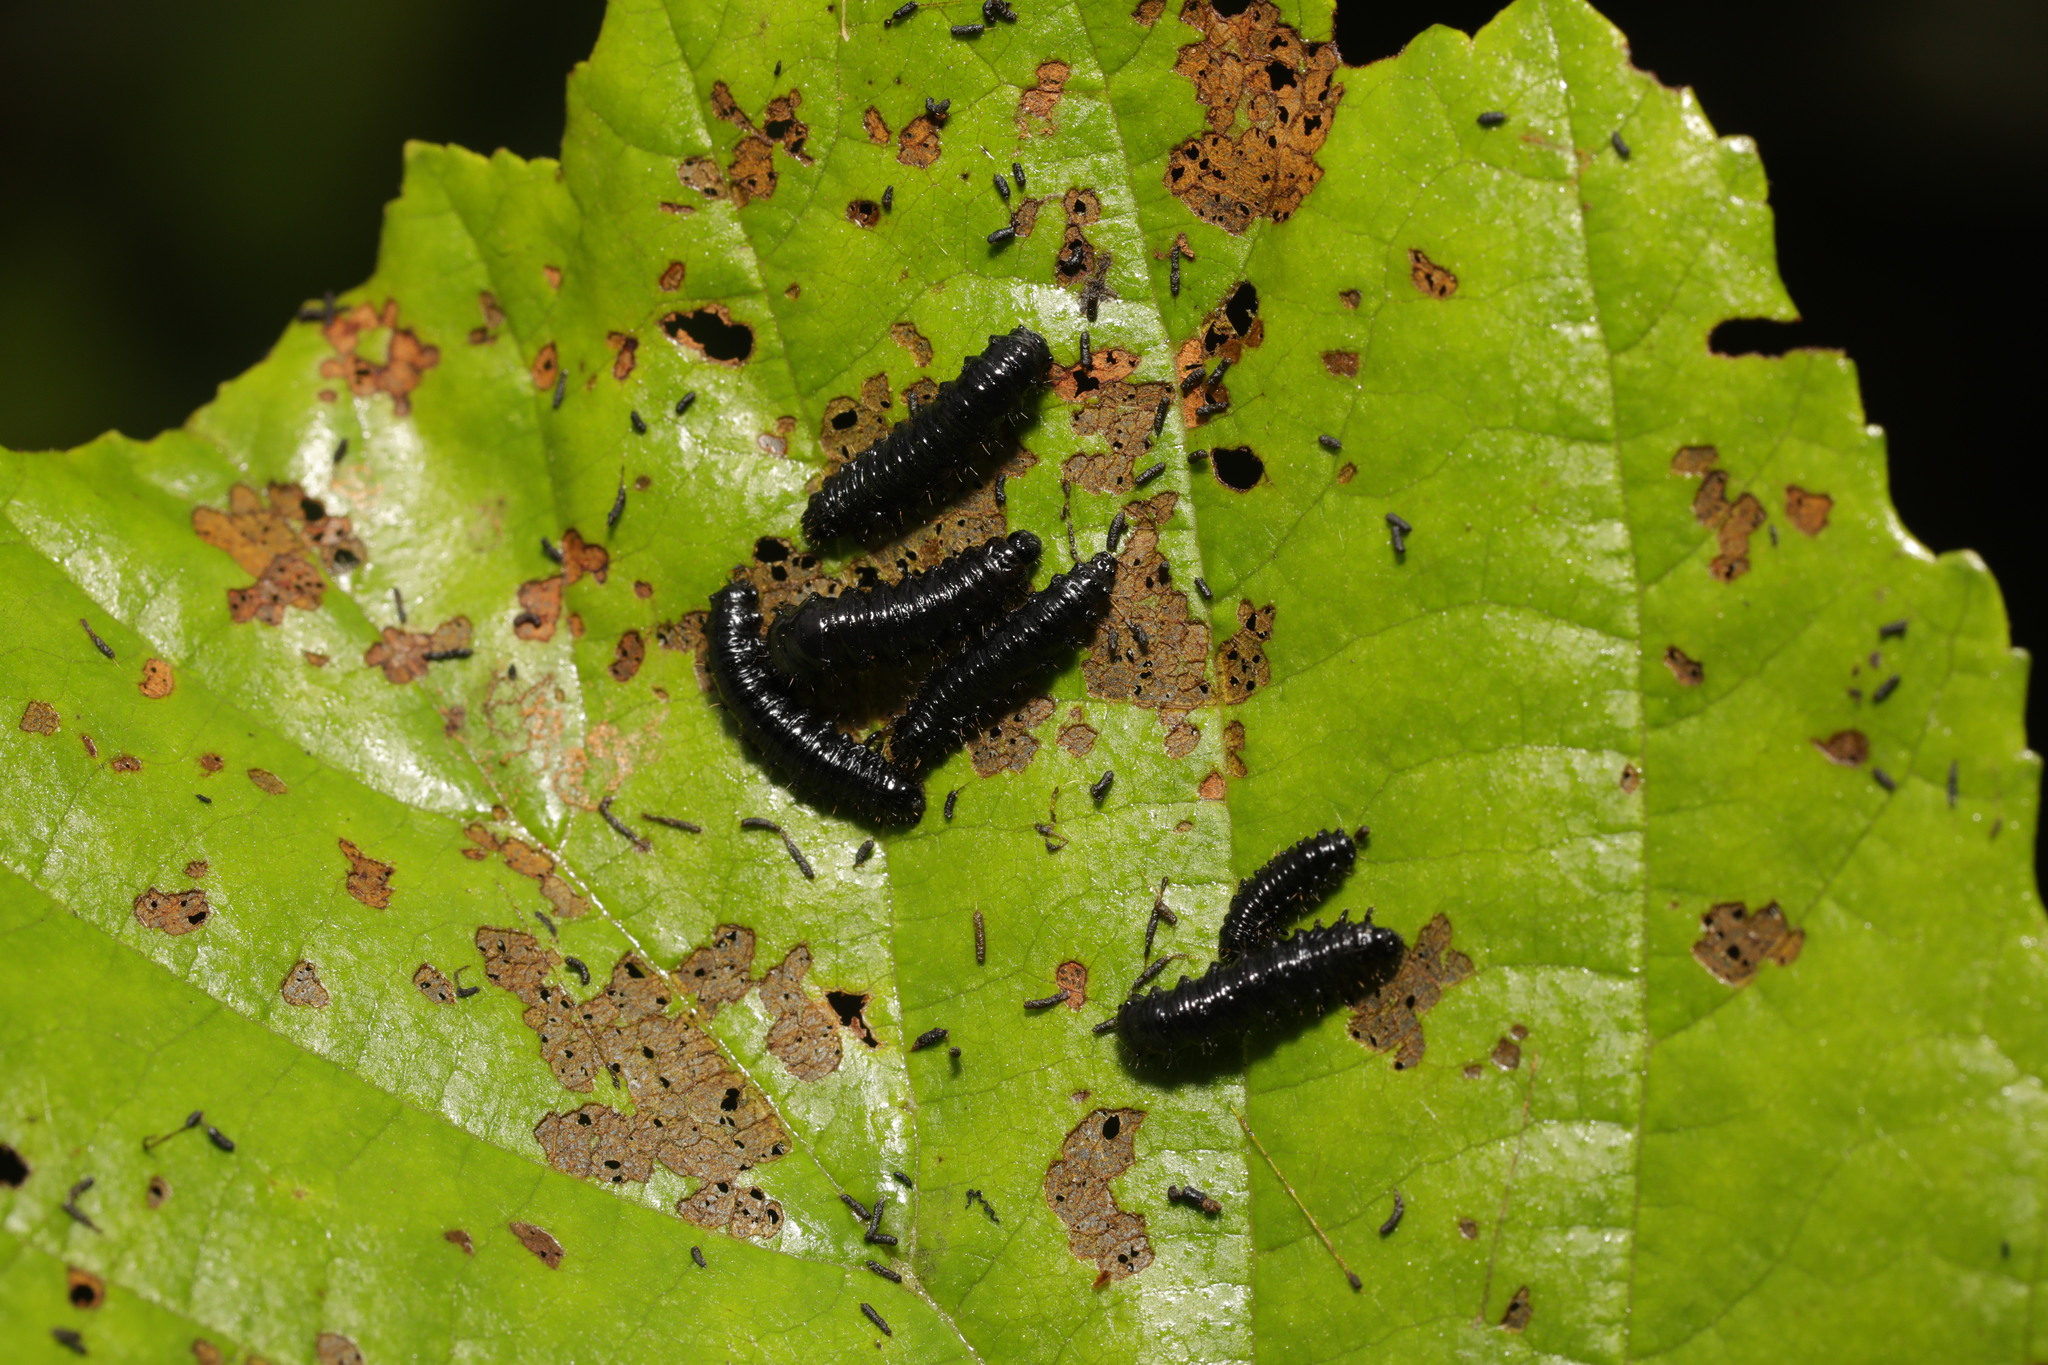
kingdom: Animalia
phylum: Arthropoda
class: Insecta
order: Coleoptera
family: Chrysomelidae
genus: Agelastica
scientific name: Agelastica alni
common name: Alder leaf beetle
